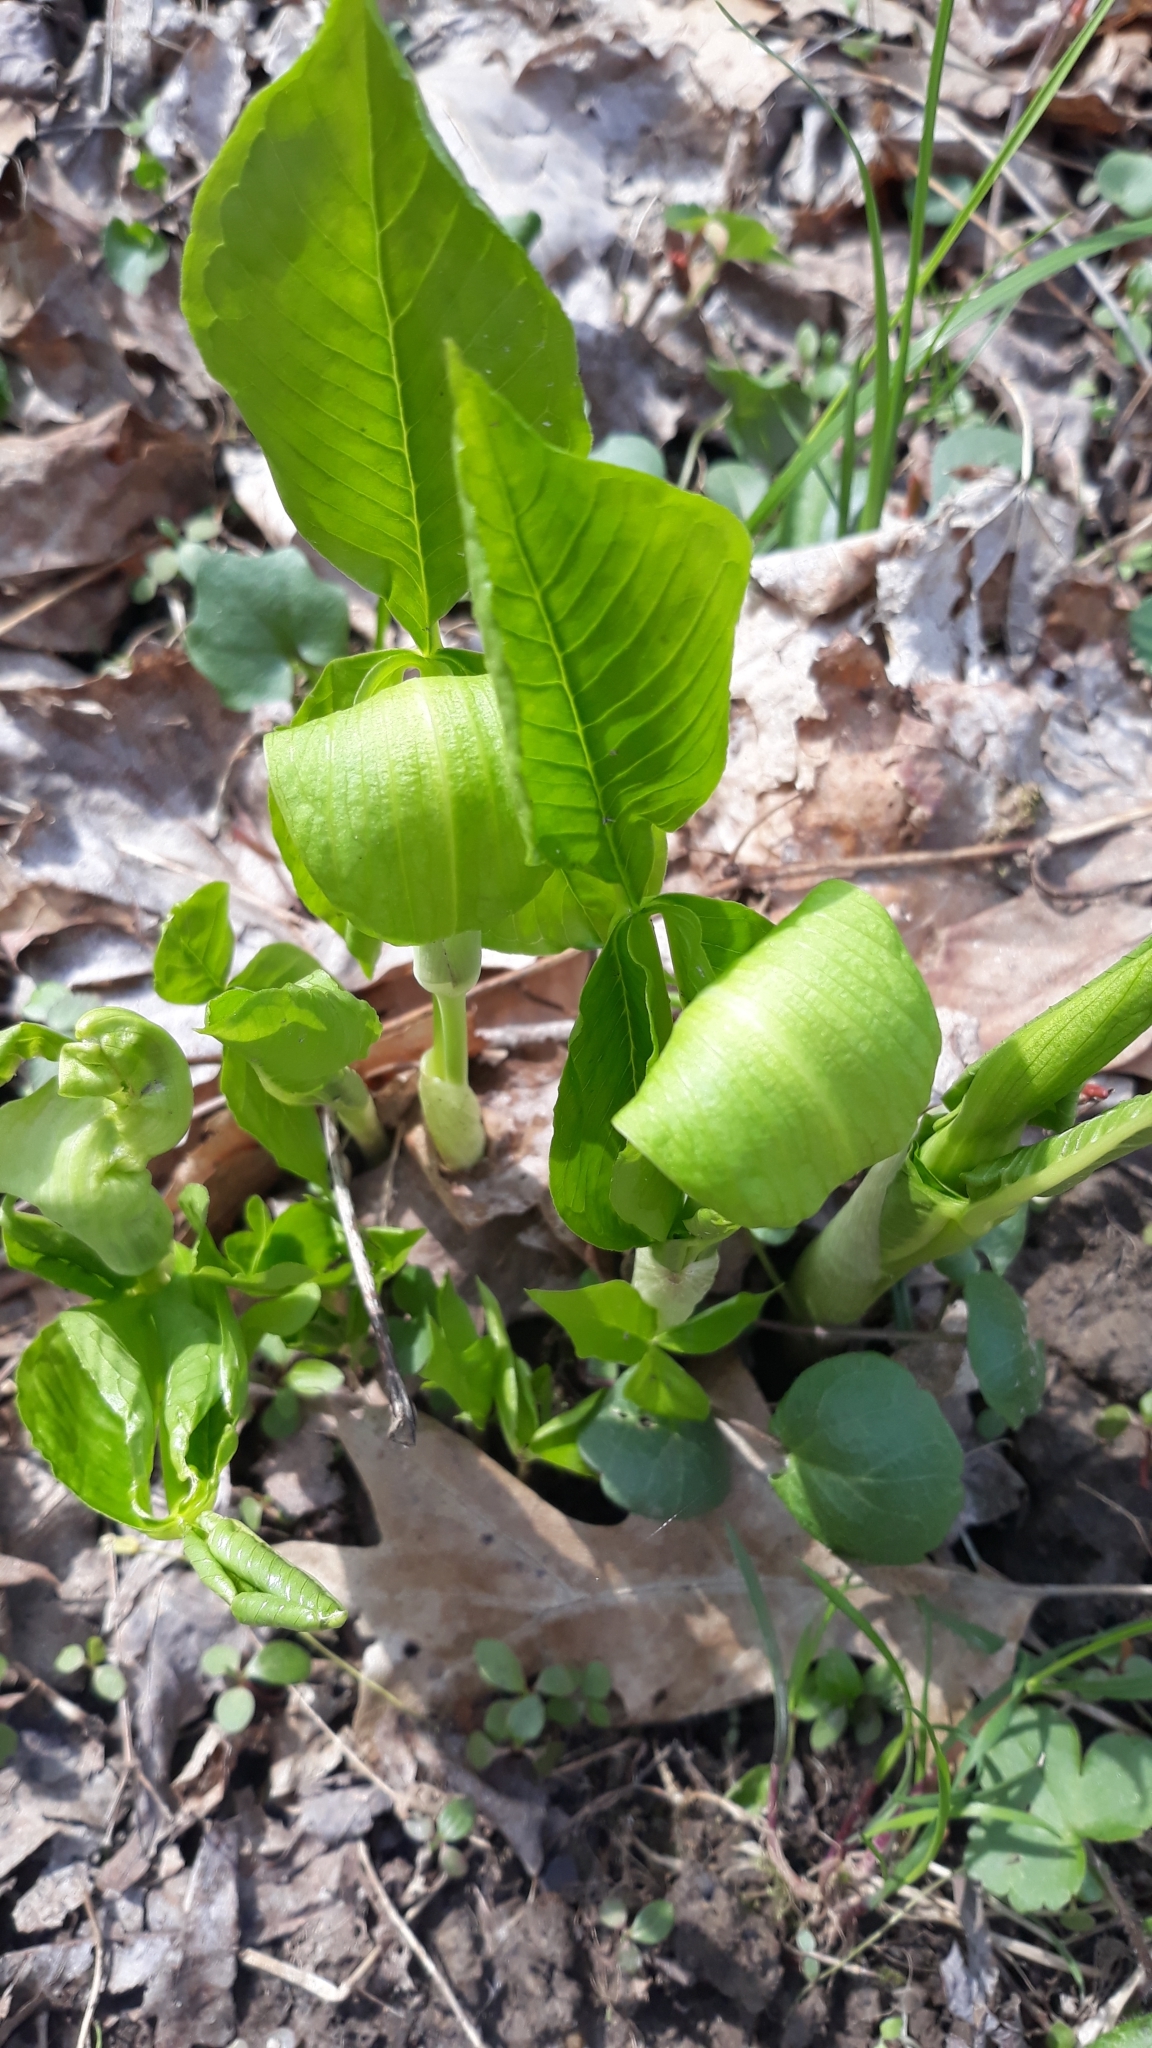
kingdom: Plantae
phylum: Tracheophyta
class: Liliopsida
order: Alismatales
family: Araceae
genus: Arisaema
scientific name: Arisaema triphyllum
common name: Jack-in-the-pulpit
